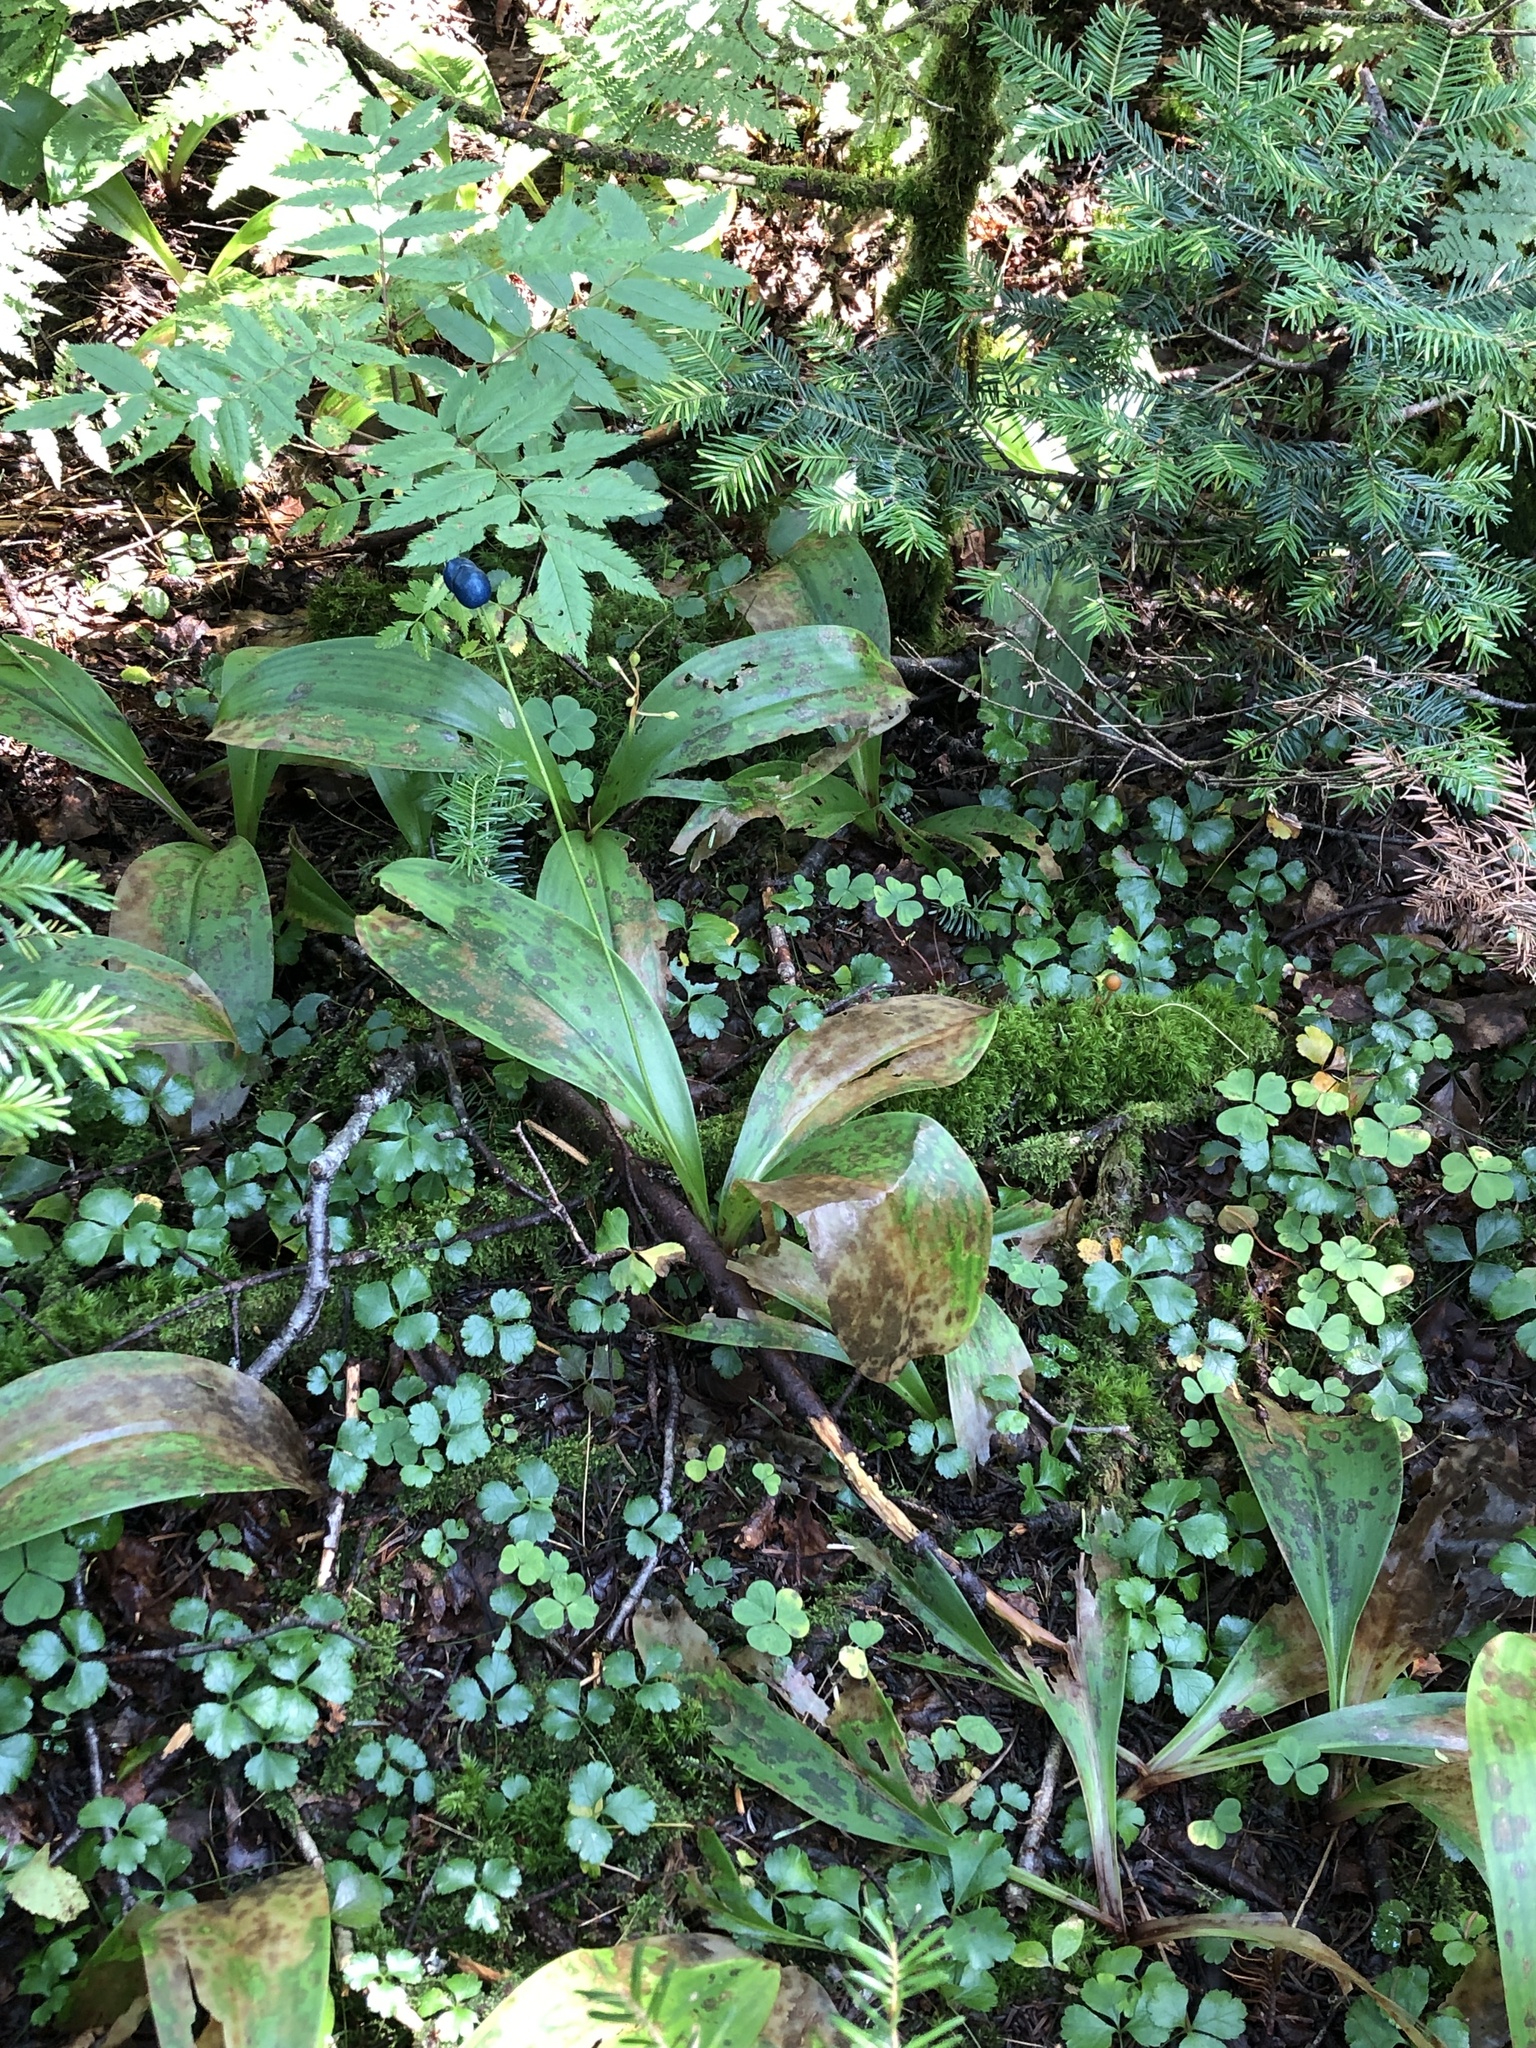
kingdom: Plantae
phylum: Tracheophyta
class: Liliopsida
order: Liliales
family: Liliaceae
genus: Clintonia
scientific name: Clintonia borealis
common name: Yellow clintonia
